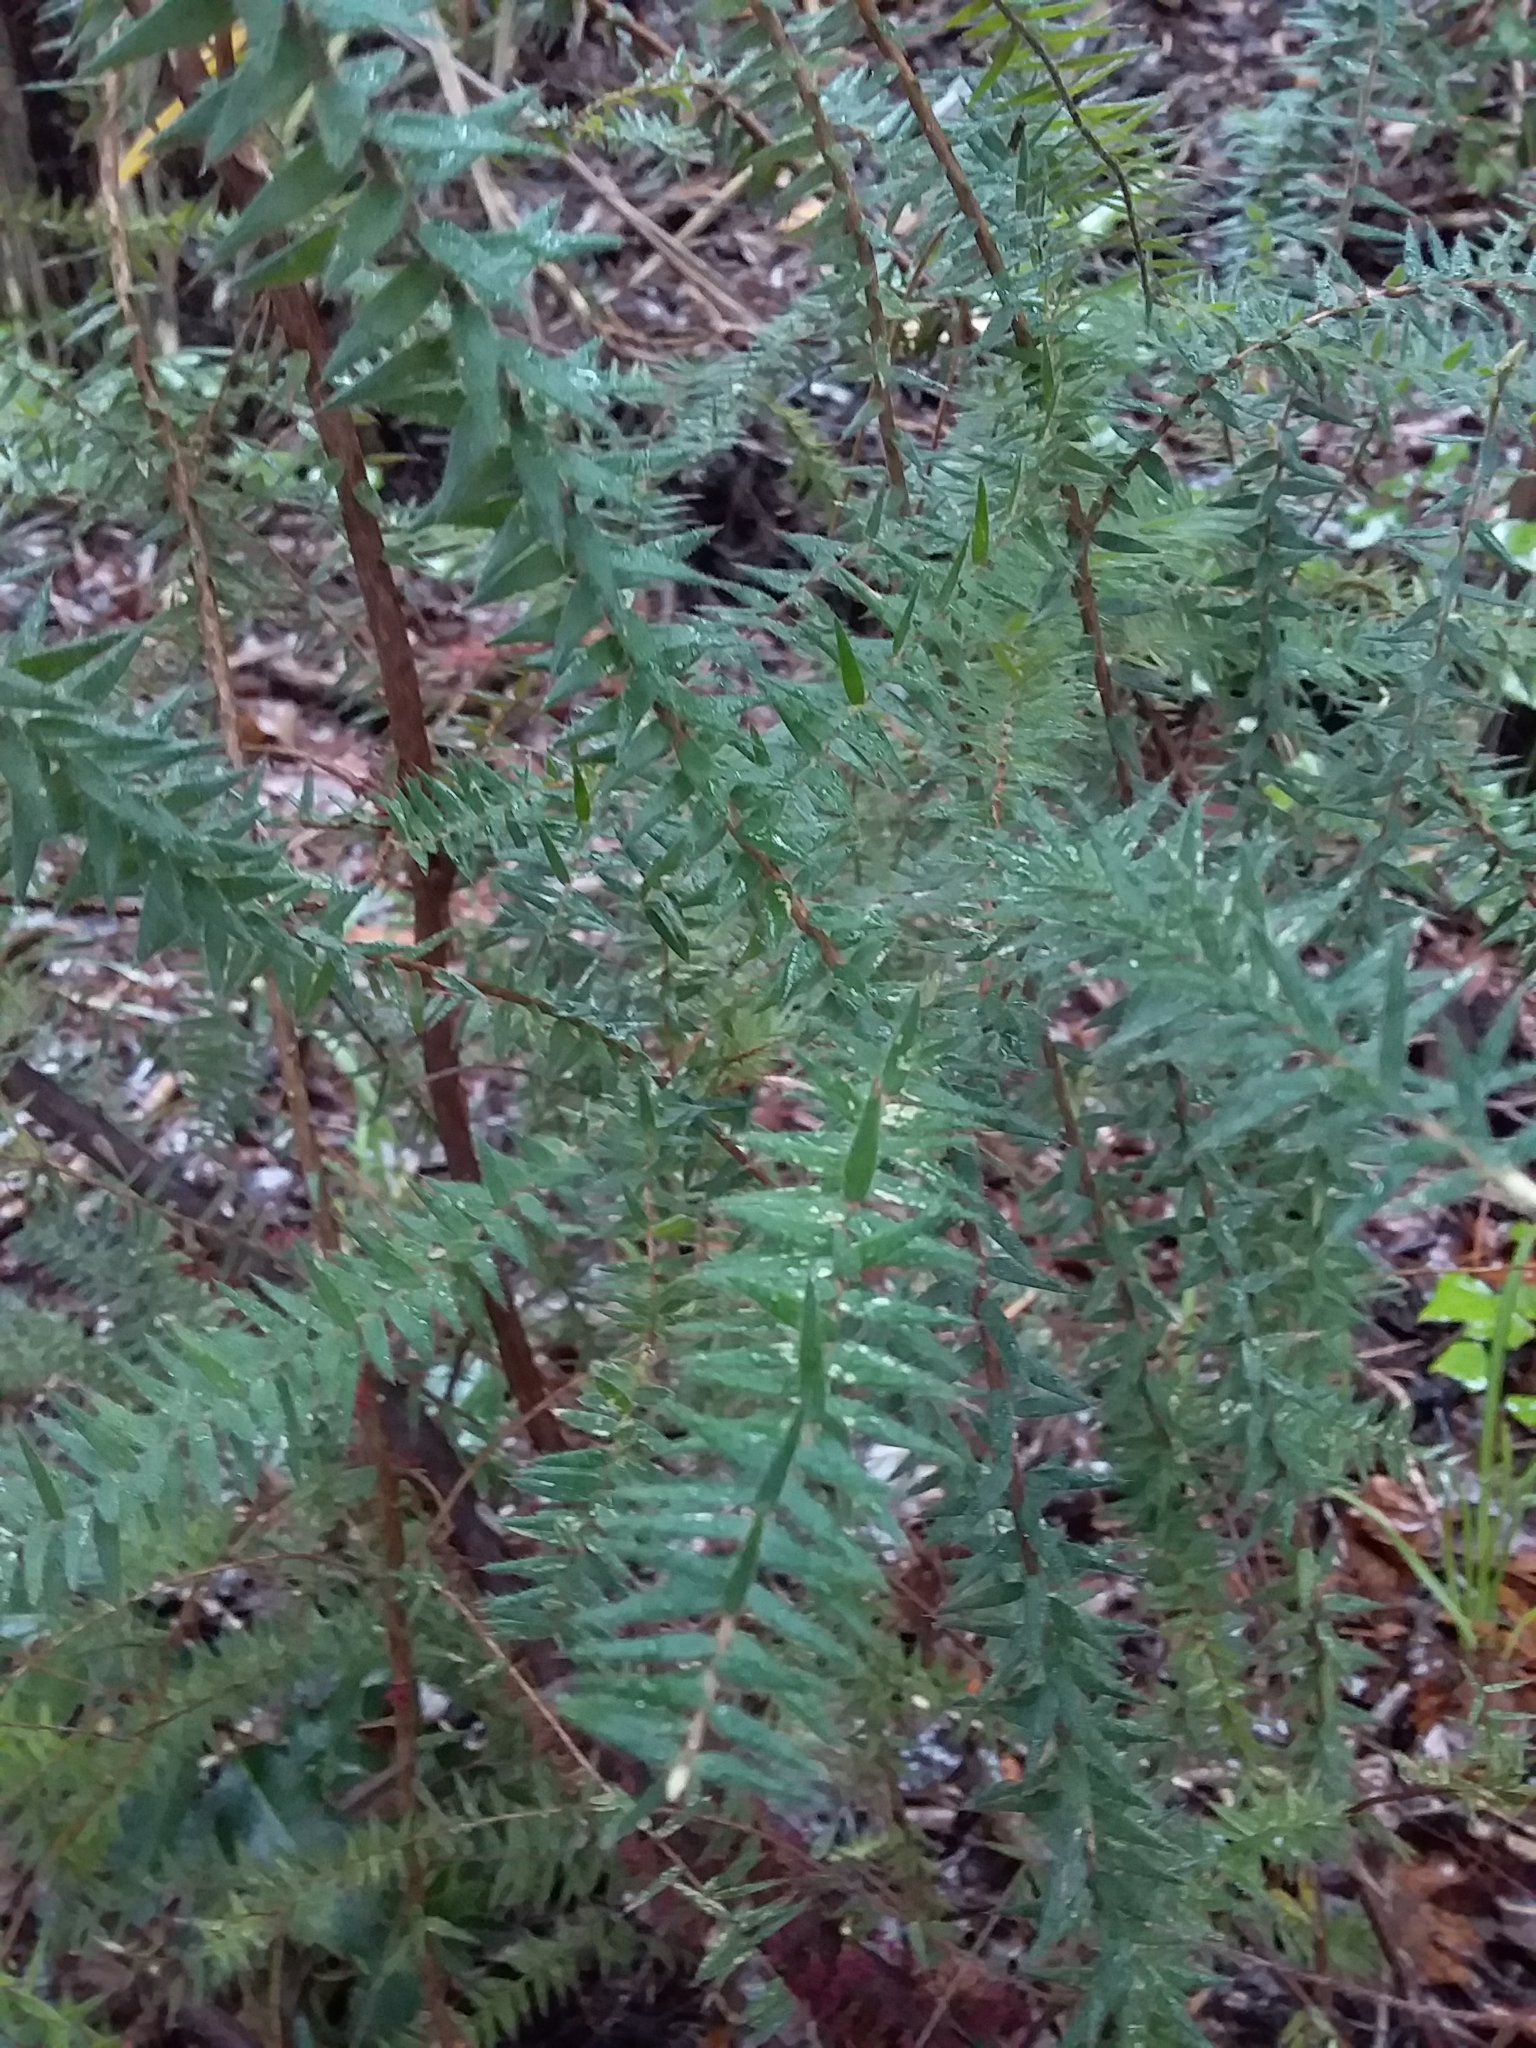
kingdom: Plantae
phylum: Tracheophyta
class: Magnoliopsida
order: Ericales
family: Ericaceae
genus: Acrotriche
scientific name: Acrotriche fasciculiflora
